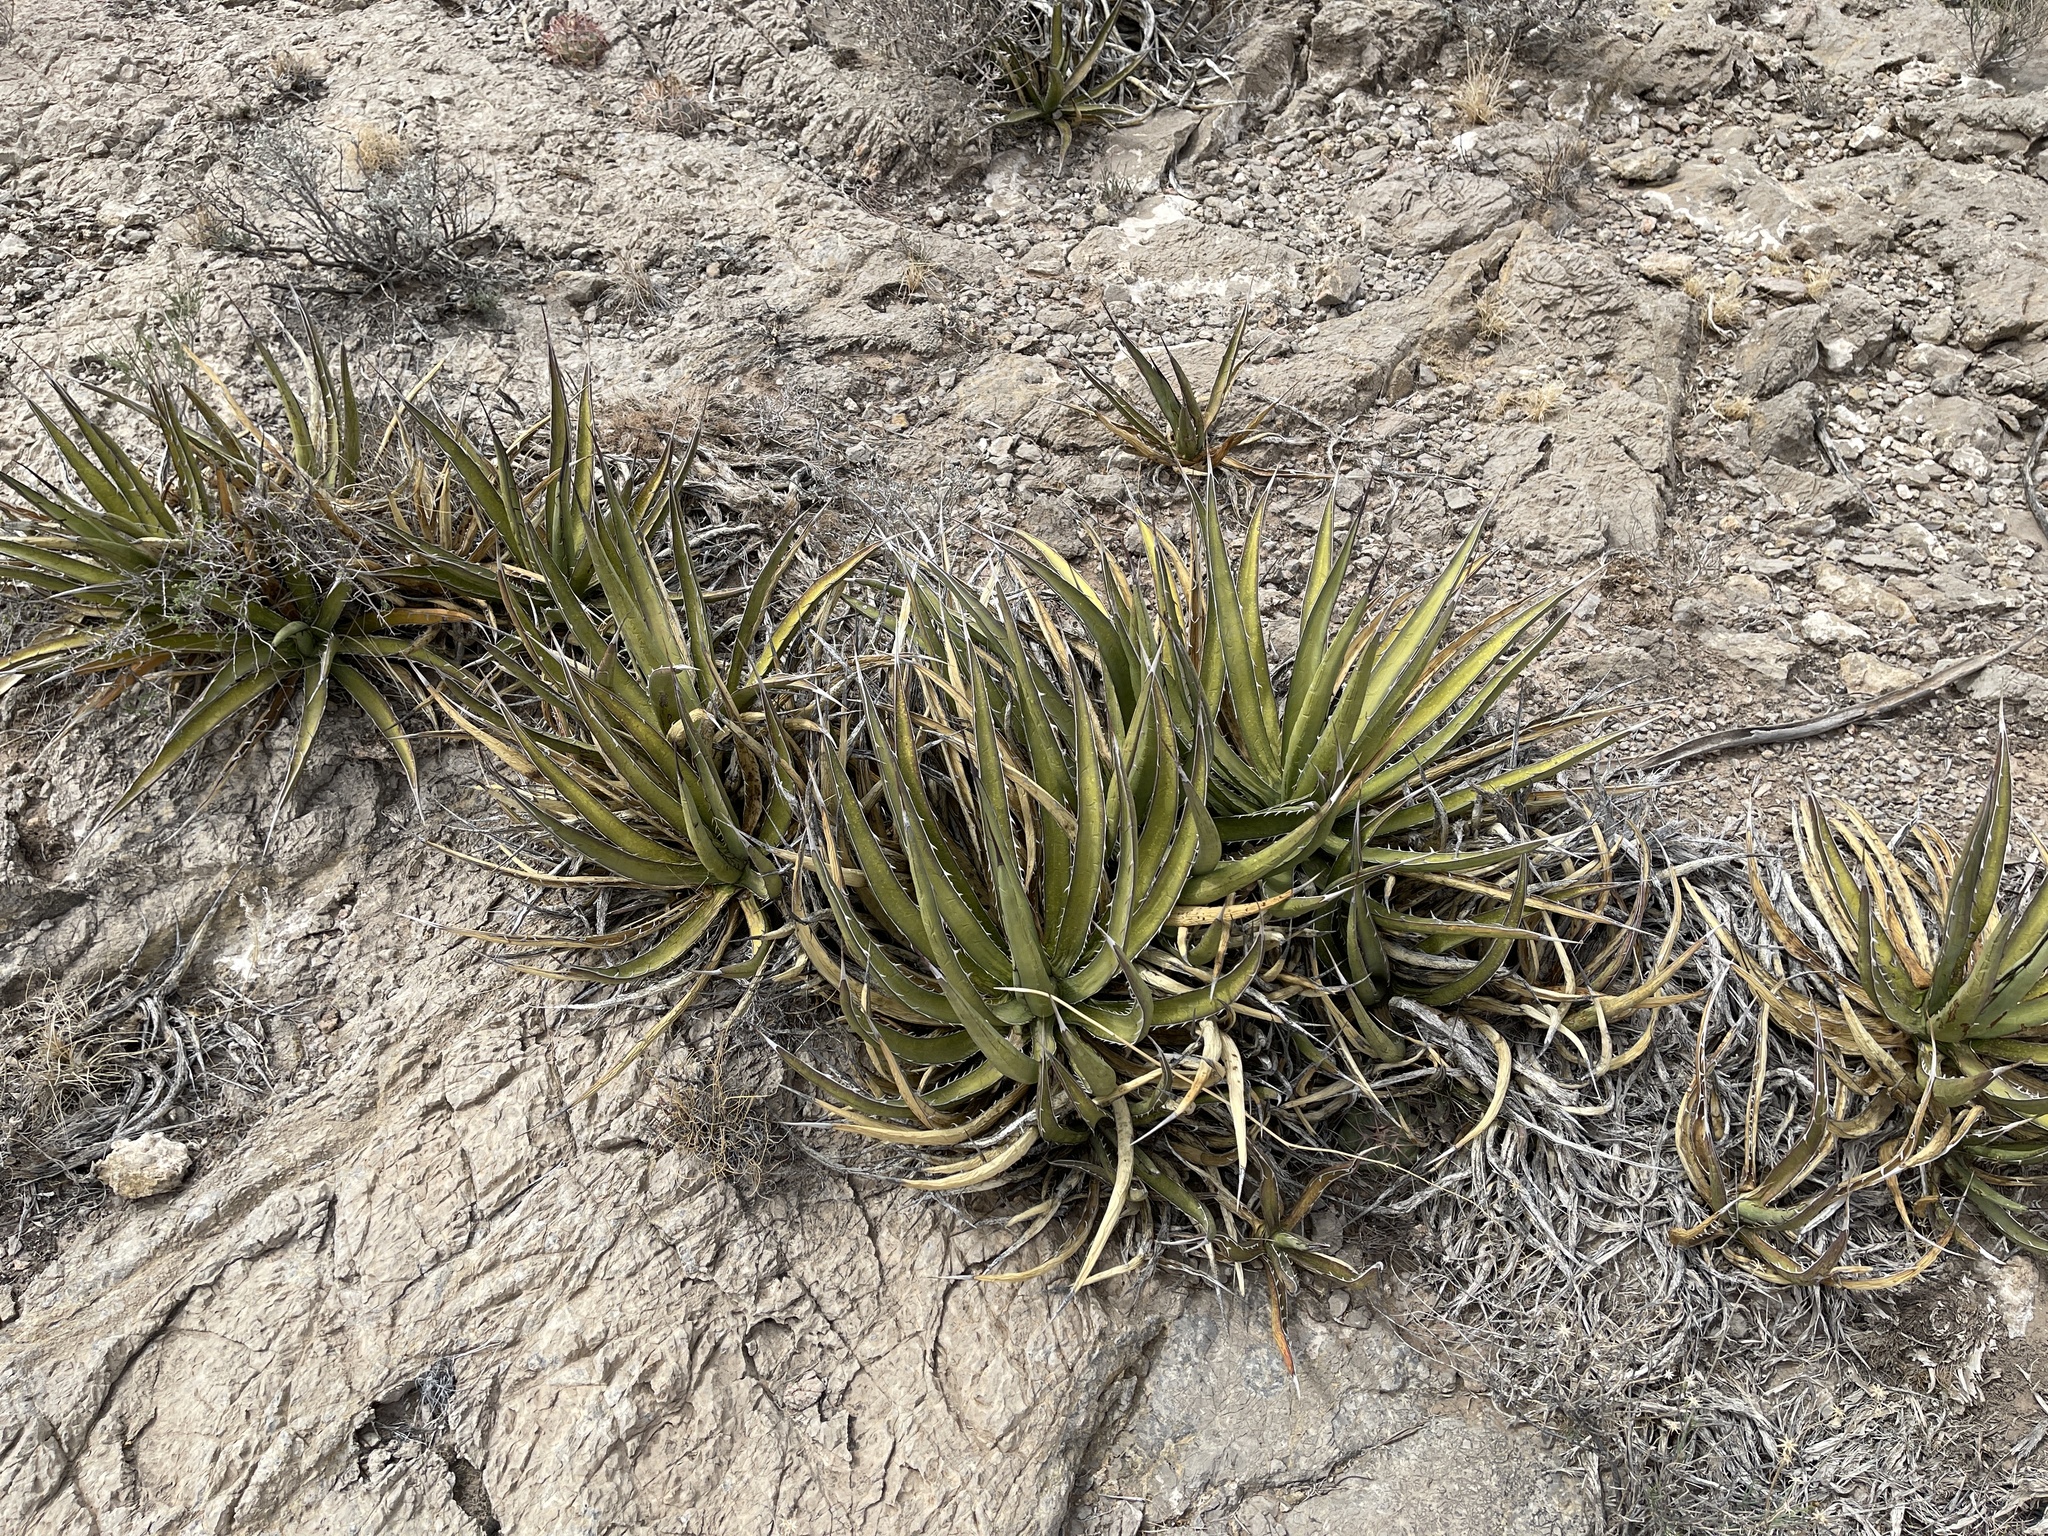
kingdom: Plantae
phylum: Tracheophyta
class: Liliopsida
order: Asparagales
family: Asparagaceae
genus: Agave
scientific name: Agave lechuguilla
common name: Lecheguilla agave
